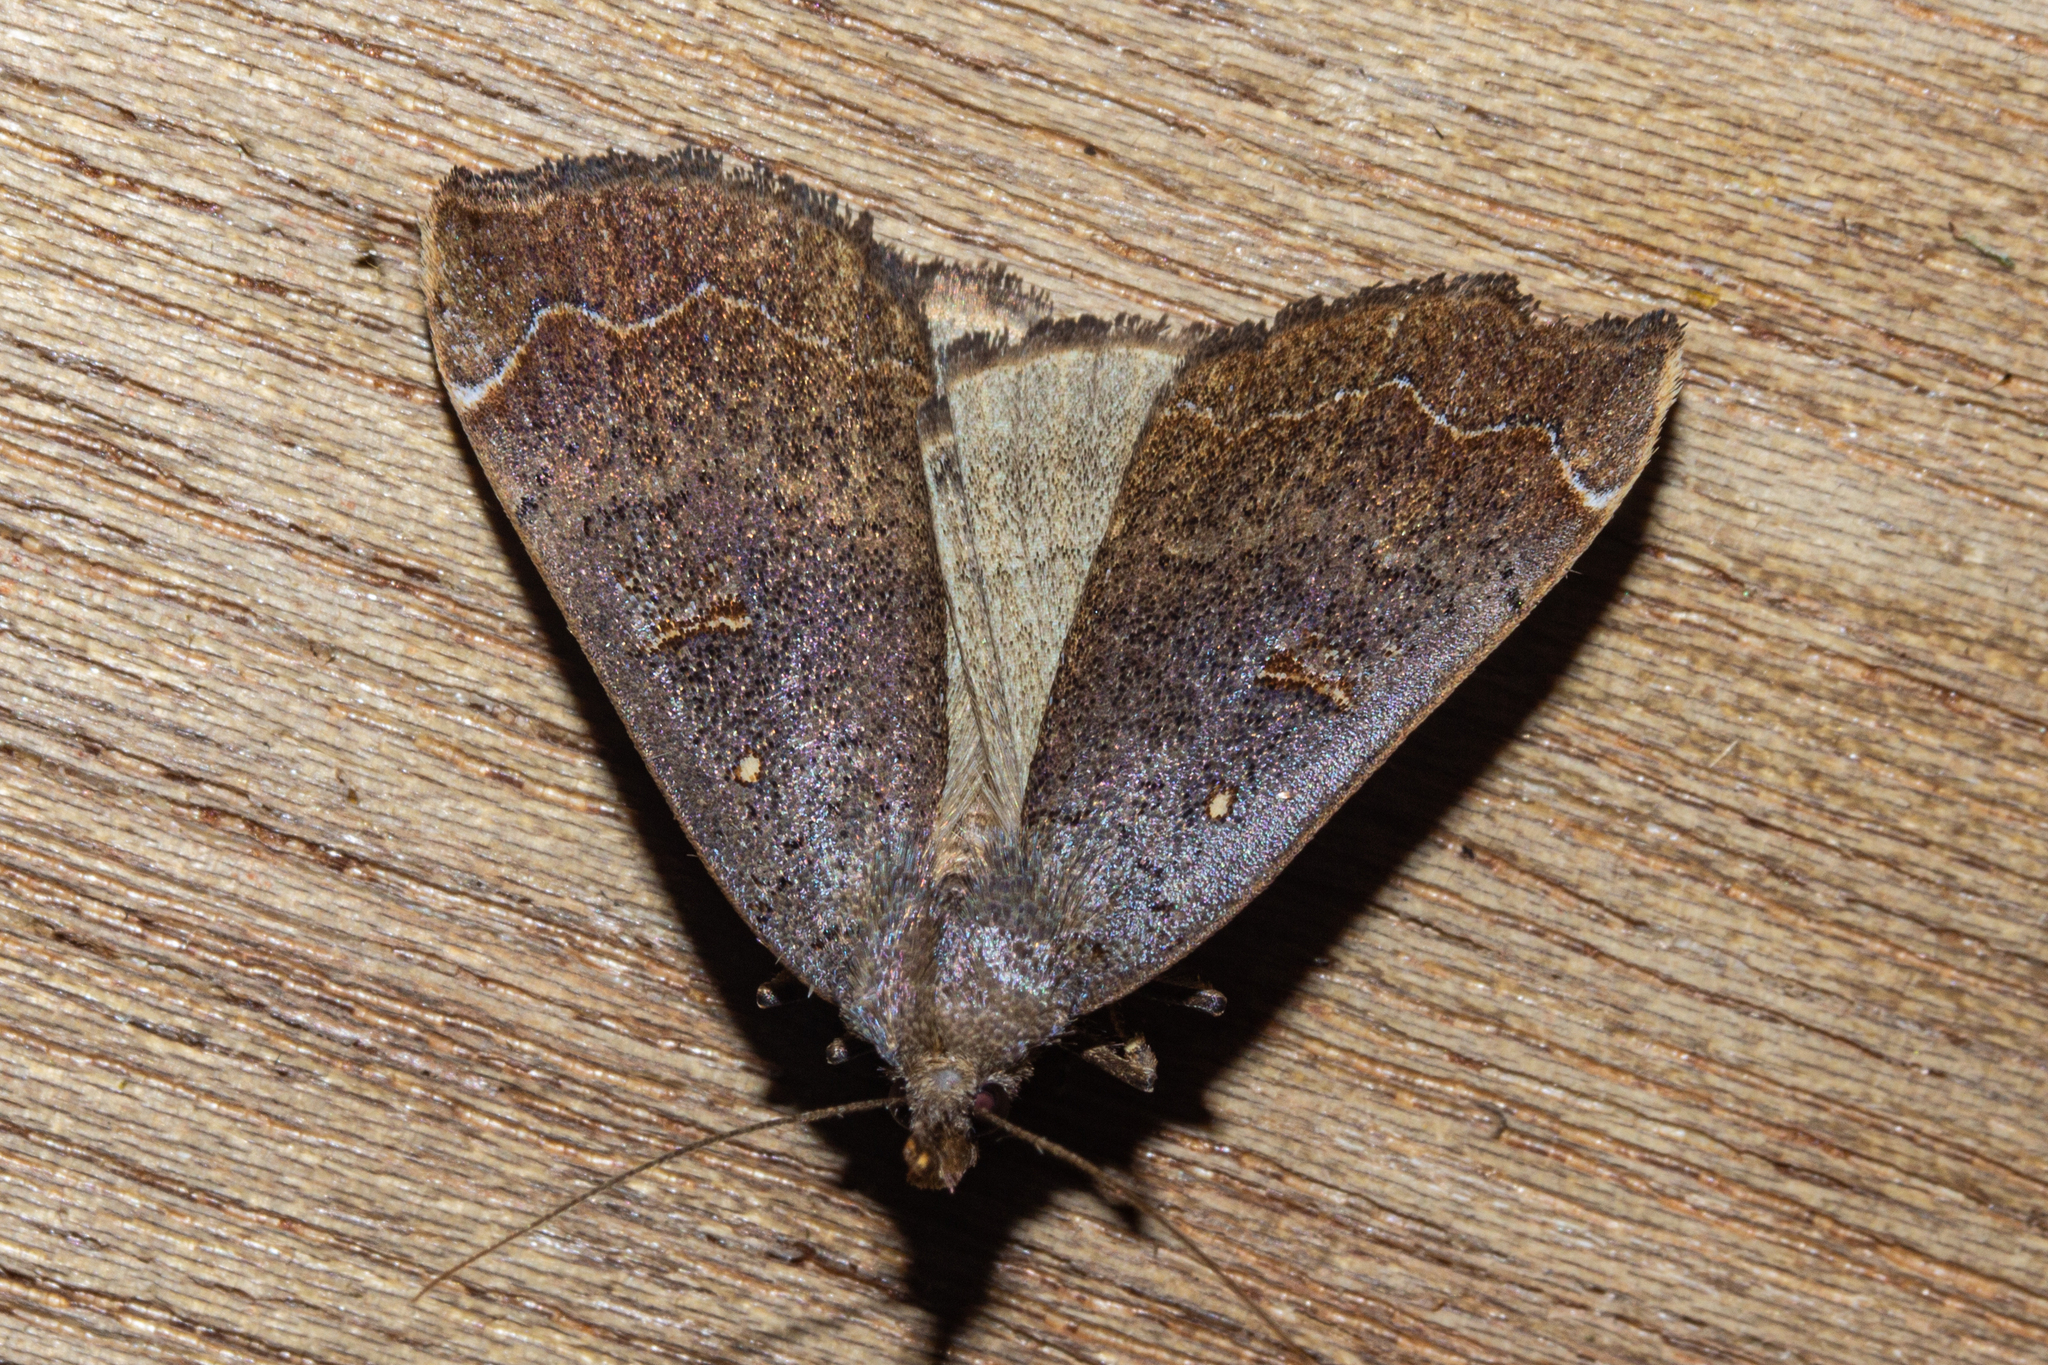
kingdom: Animalia
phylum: Arthropoda
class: Insecta
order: Lepidoptera
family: Erebidae
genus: Rhapsa
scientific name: Rhapsa scotosialis
